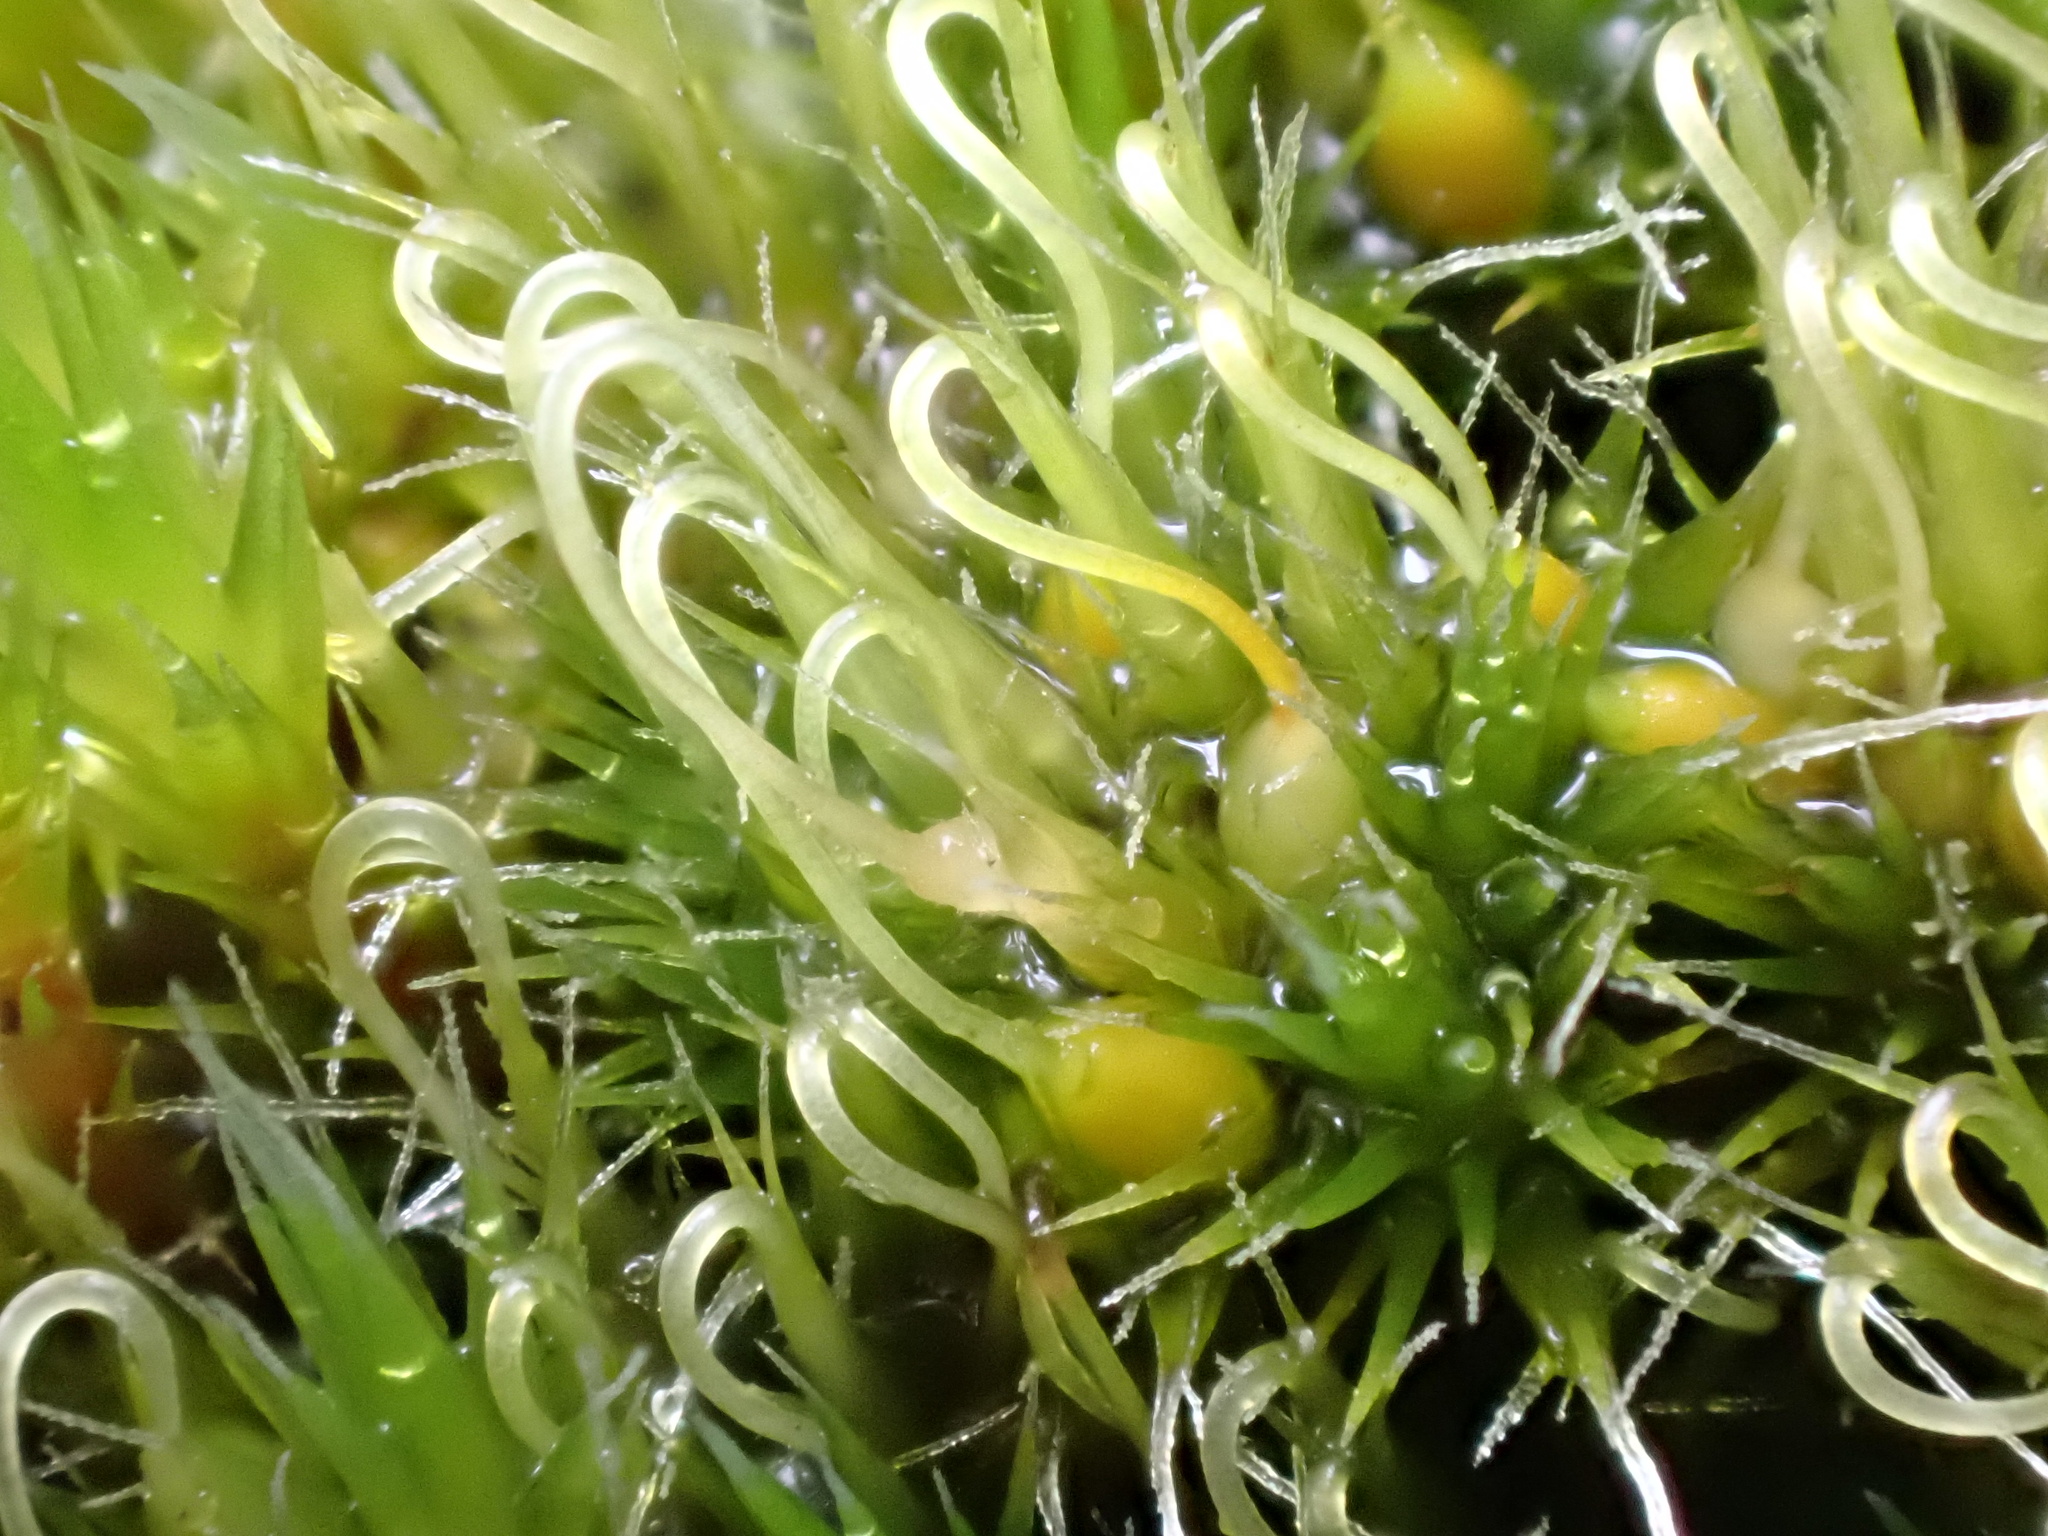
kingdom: Plantae
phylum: Bryophyta
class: Bryopsida
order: Dicranales
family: Leucobryaceae
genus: Campylopus
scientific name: Campylopus introflexus
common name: Heath star moss
